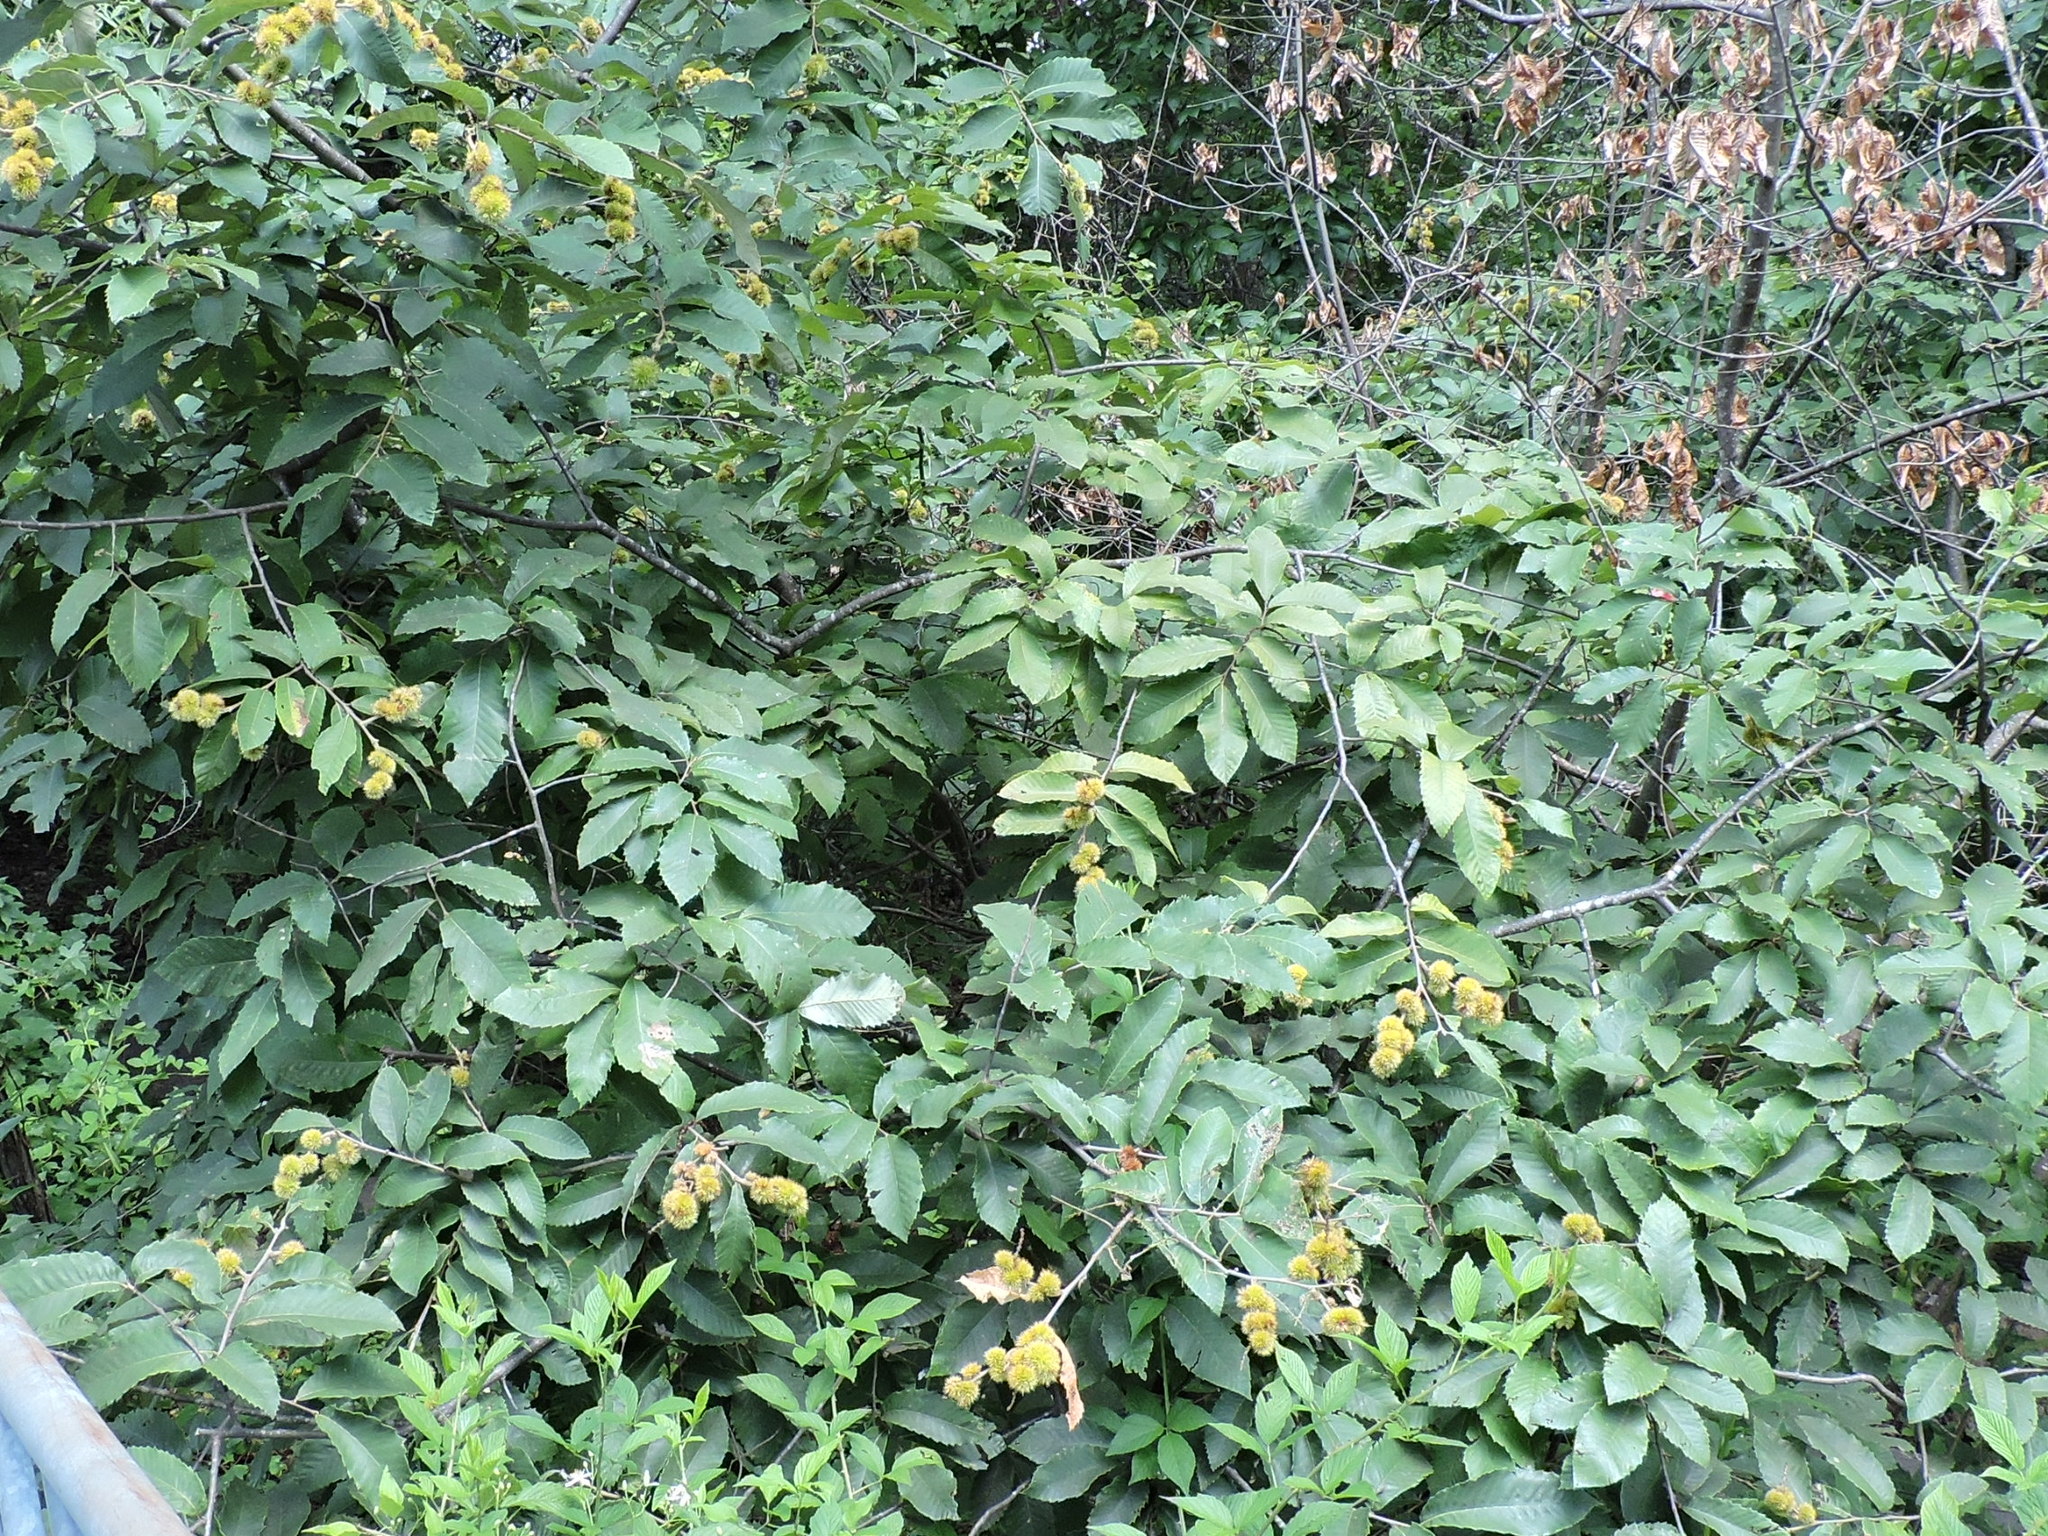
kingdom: Plantae
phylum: Tracheophyta
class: Magnoliopsida
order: Fagales
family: Fagaceae
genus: Castanea
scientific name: Castanea pumila
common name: Chinkapin
